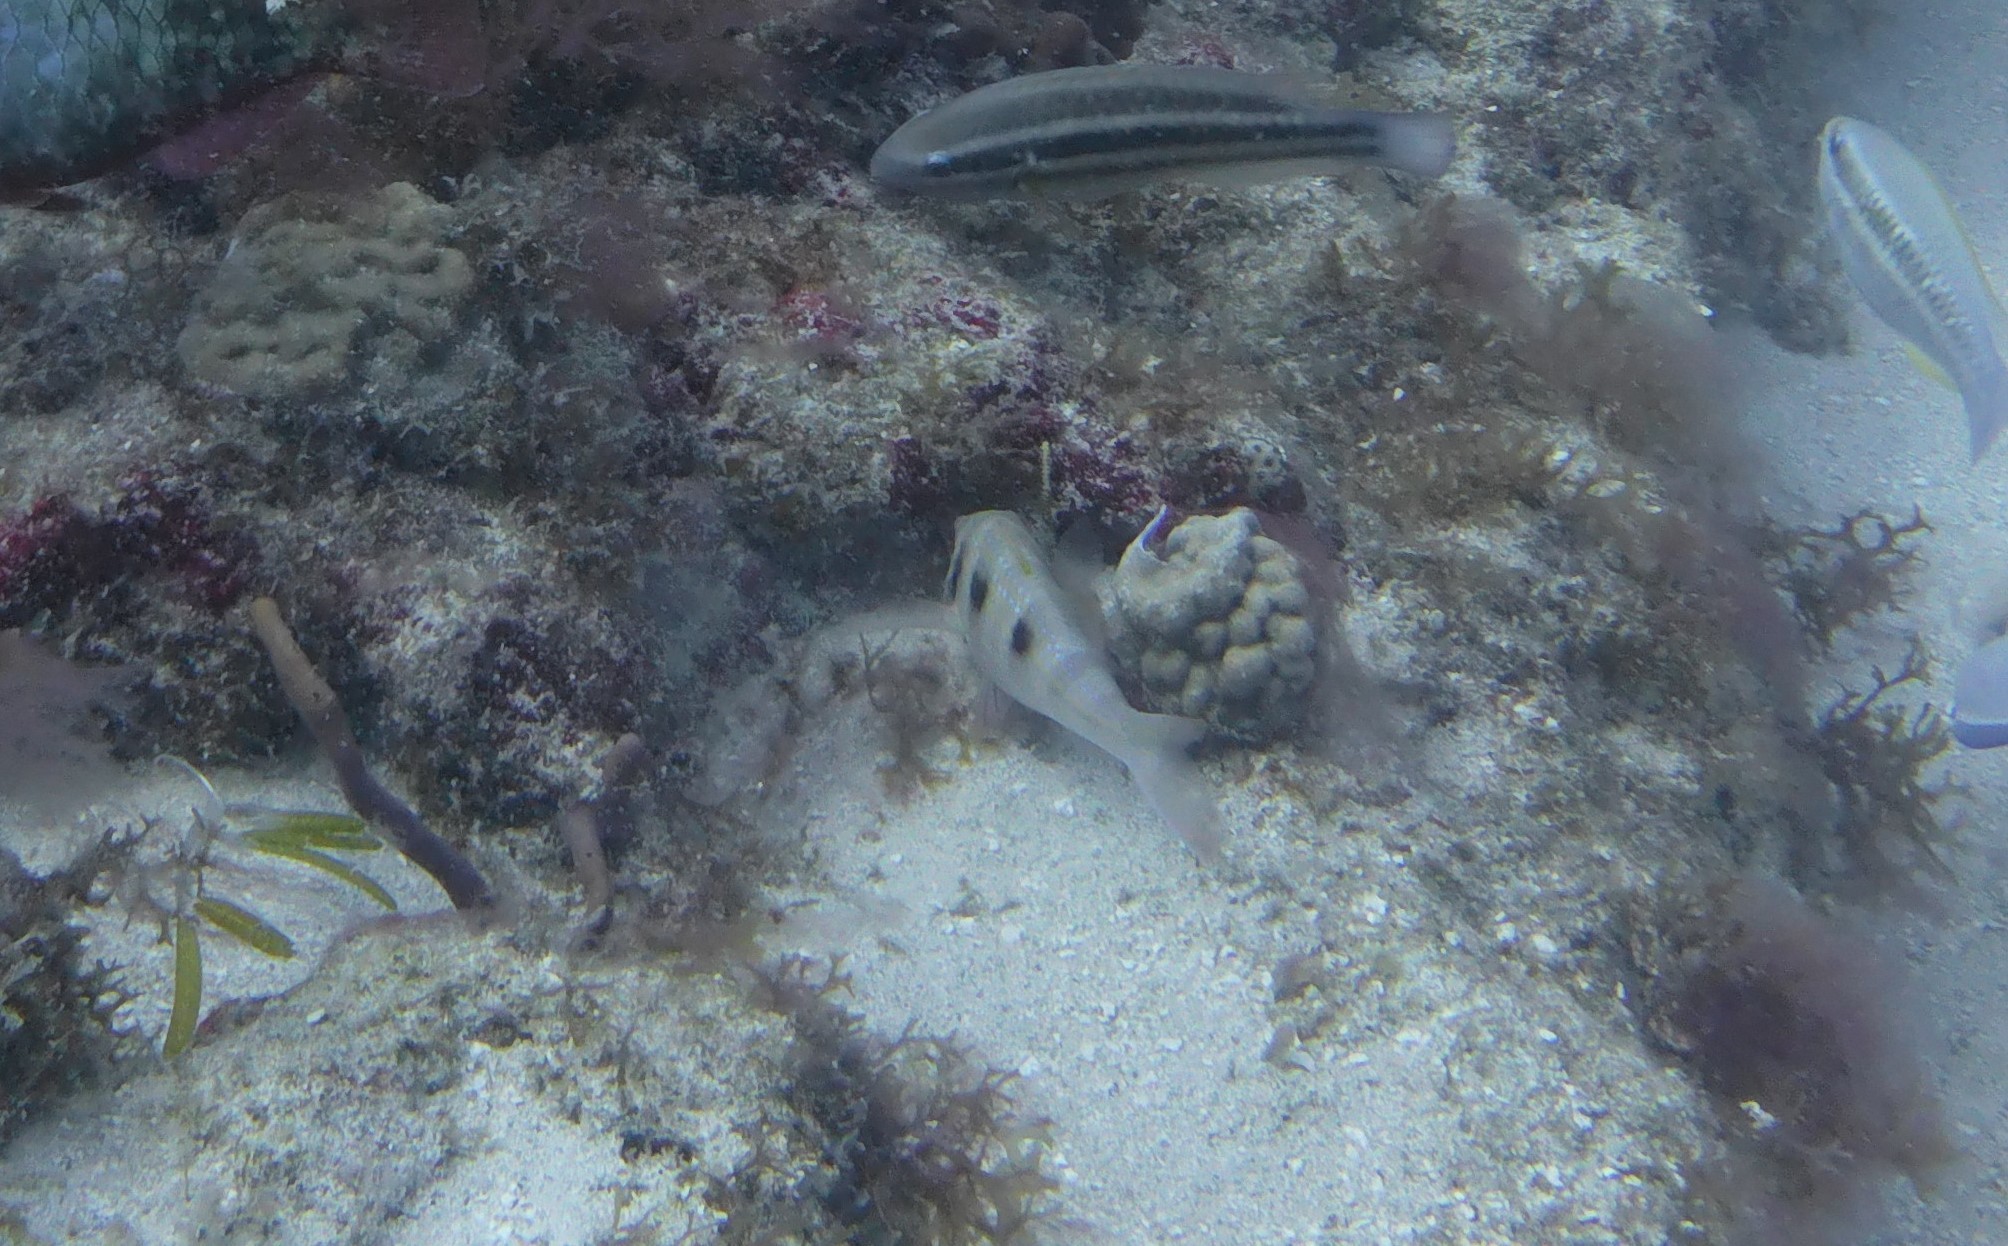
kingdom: Animalia
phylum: Chordata
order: Perciformes
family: Mullidae
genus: Pseudupeneus
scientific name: Pseudupeneus maculatus
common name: Spotted goatfish
